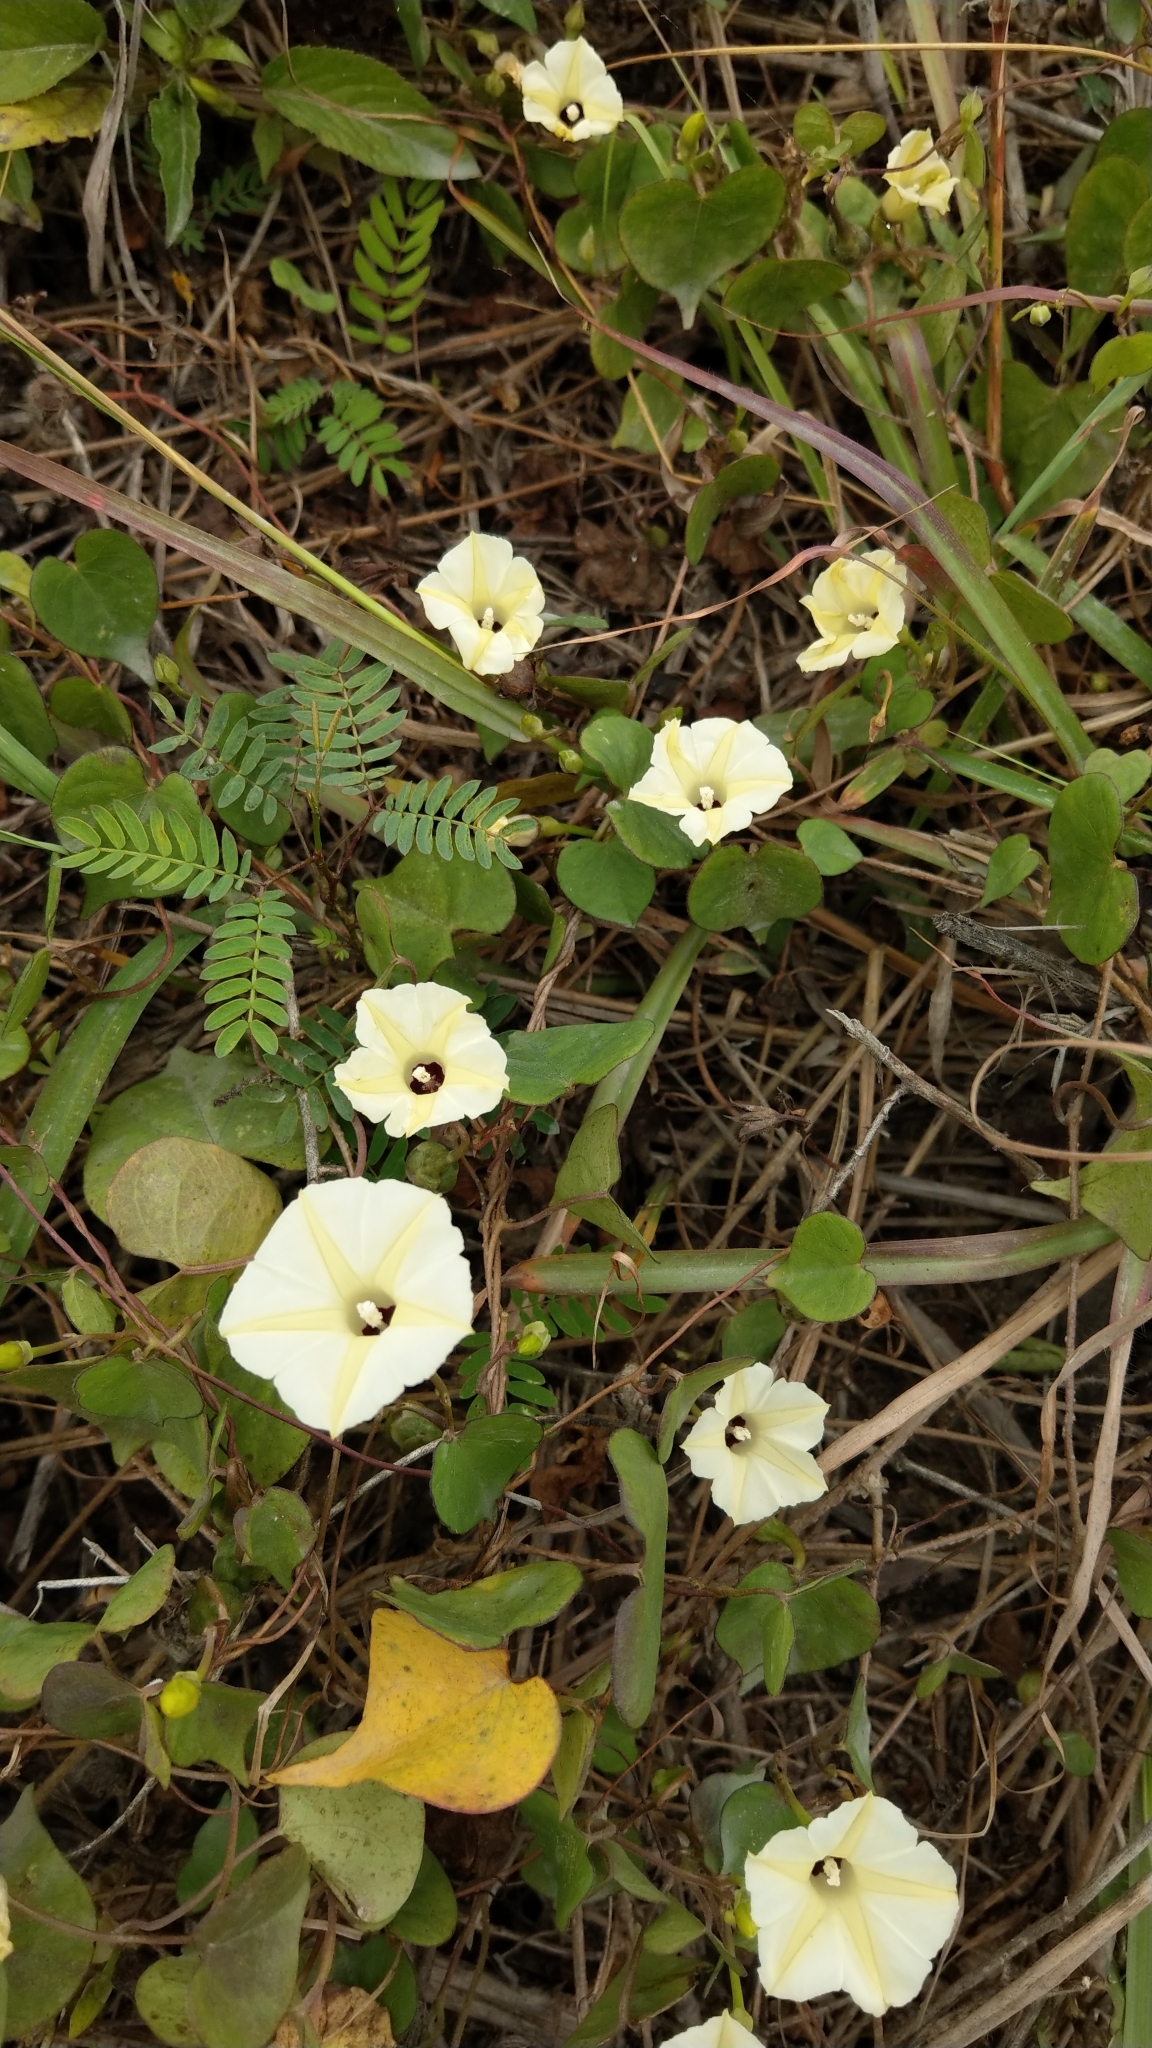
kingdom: Plantae
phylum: Tracheophyta
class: Magnoliopsida
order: Solanales
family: Convolvulaceae
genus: Ipomoea
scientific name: Ipomoea obscura
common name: Obscure morning-glory
